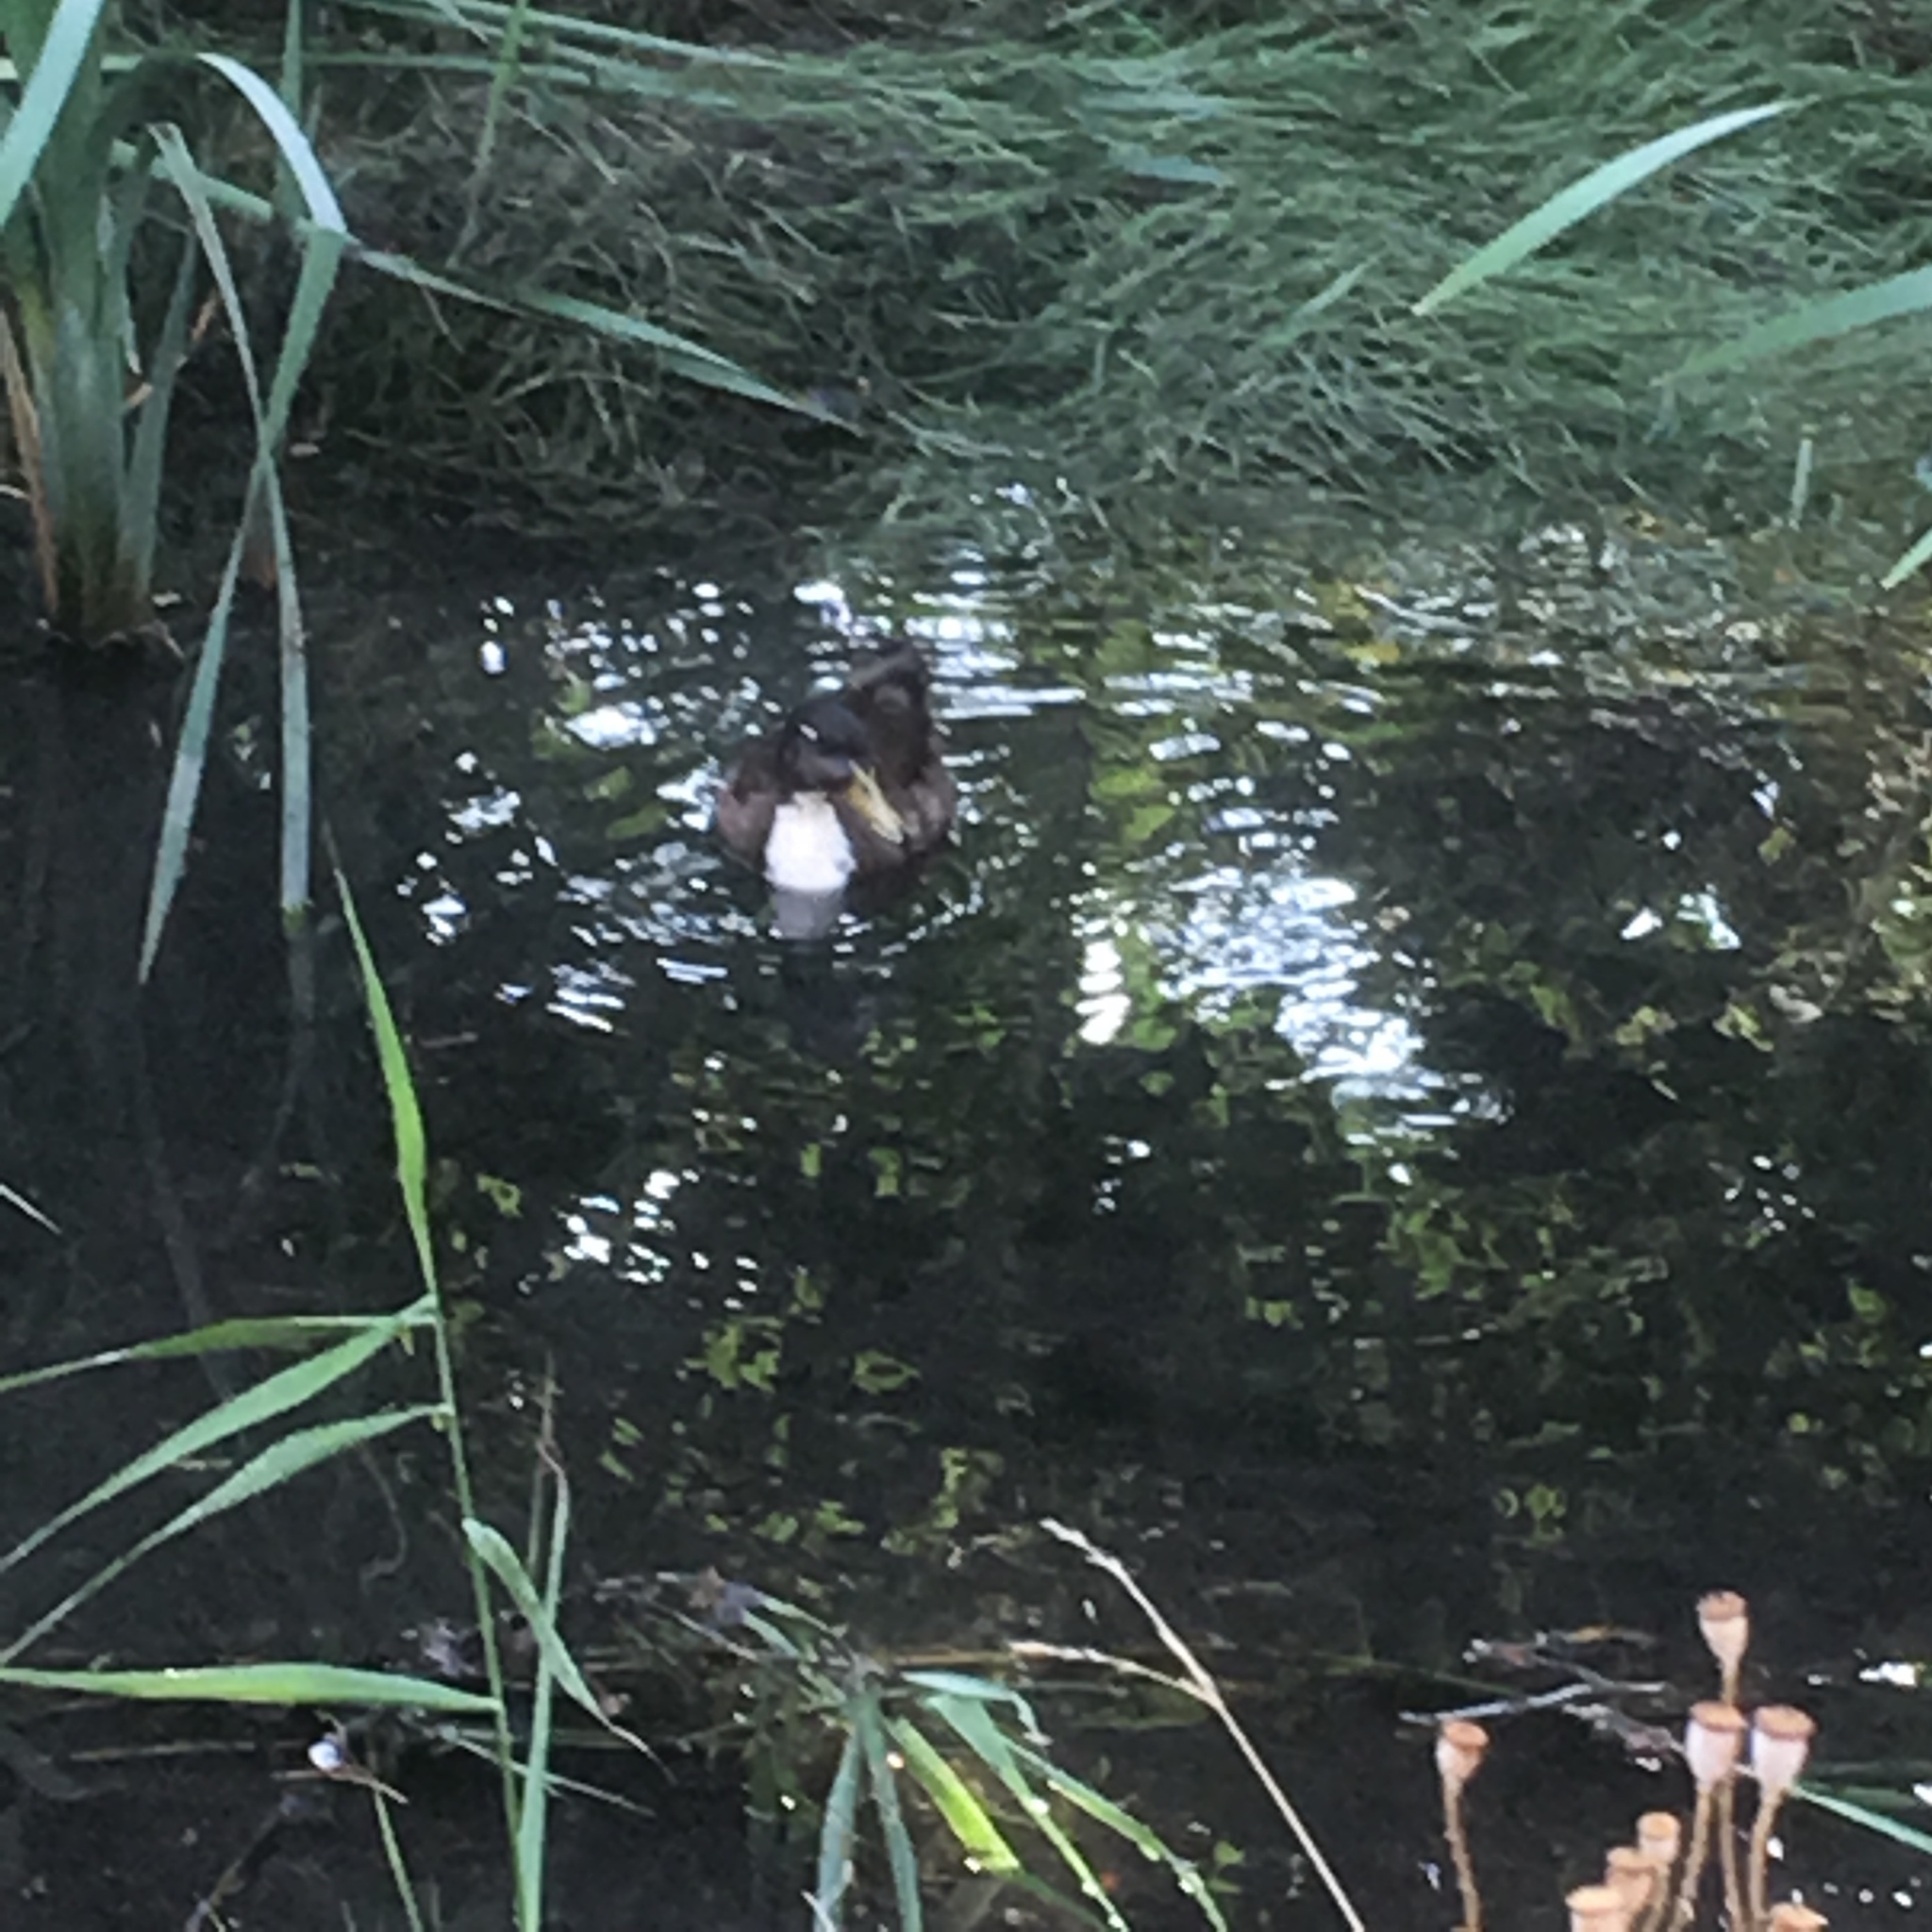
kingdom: Animalia
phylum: Chordata
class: Aves
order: Anseriformes
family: Anatidae
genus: Anas
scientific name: Anas platyrhynchos
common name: Mallard
